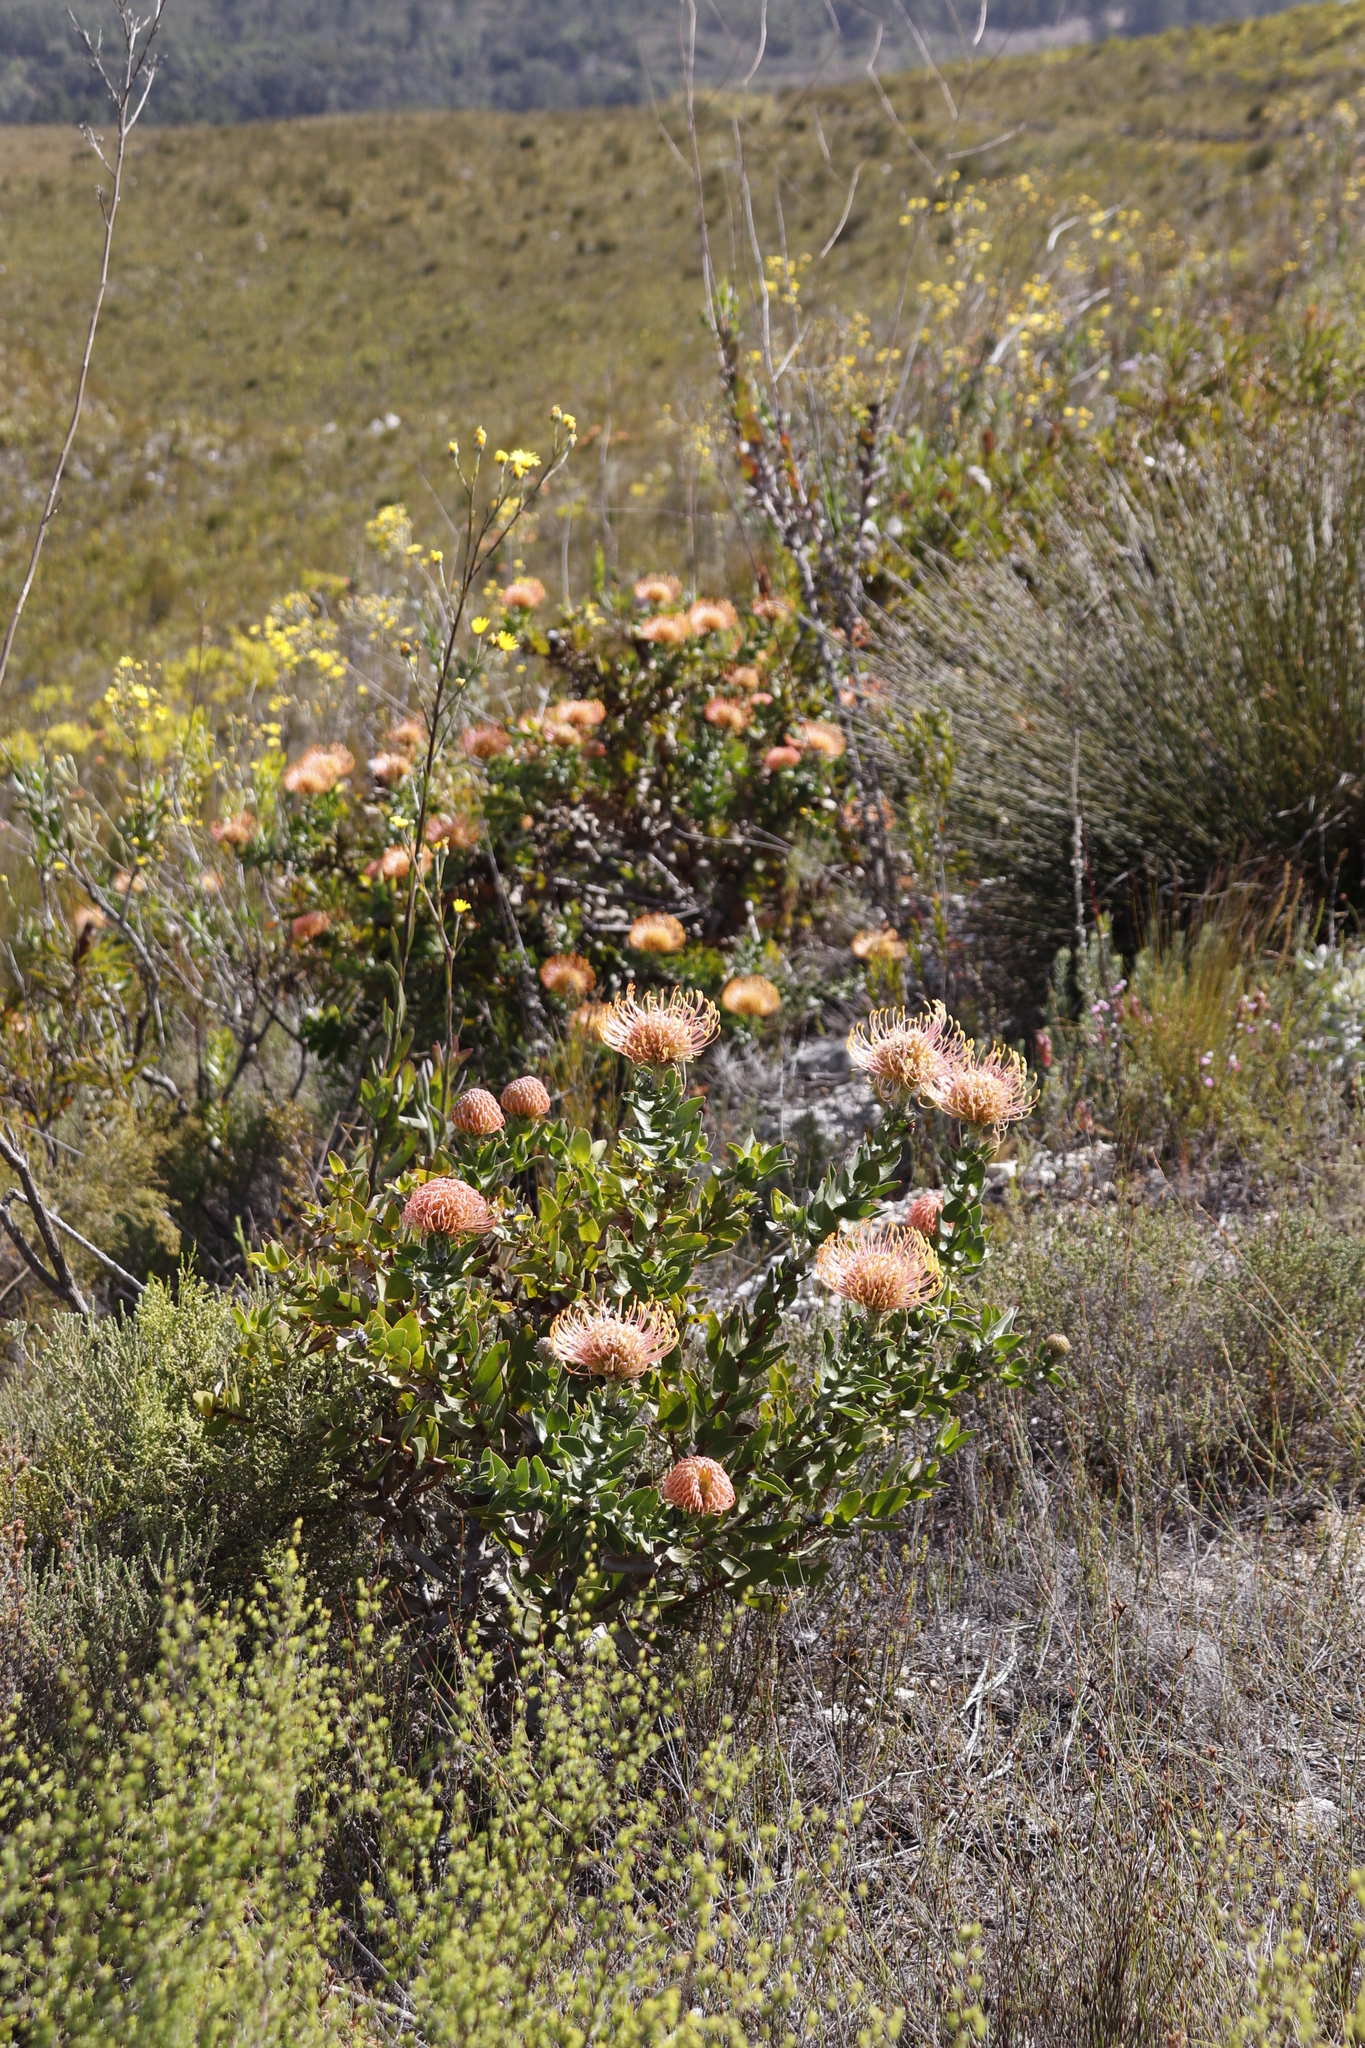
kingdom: Plantae
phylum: Tracheophyta
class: Magnoliopsida
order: Proteales
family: Proteaceae
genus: Leucospermum
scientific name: Leucospermum cordifolium
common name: Red pincushion-protea
